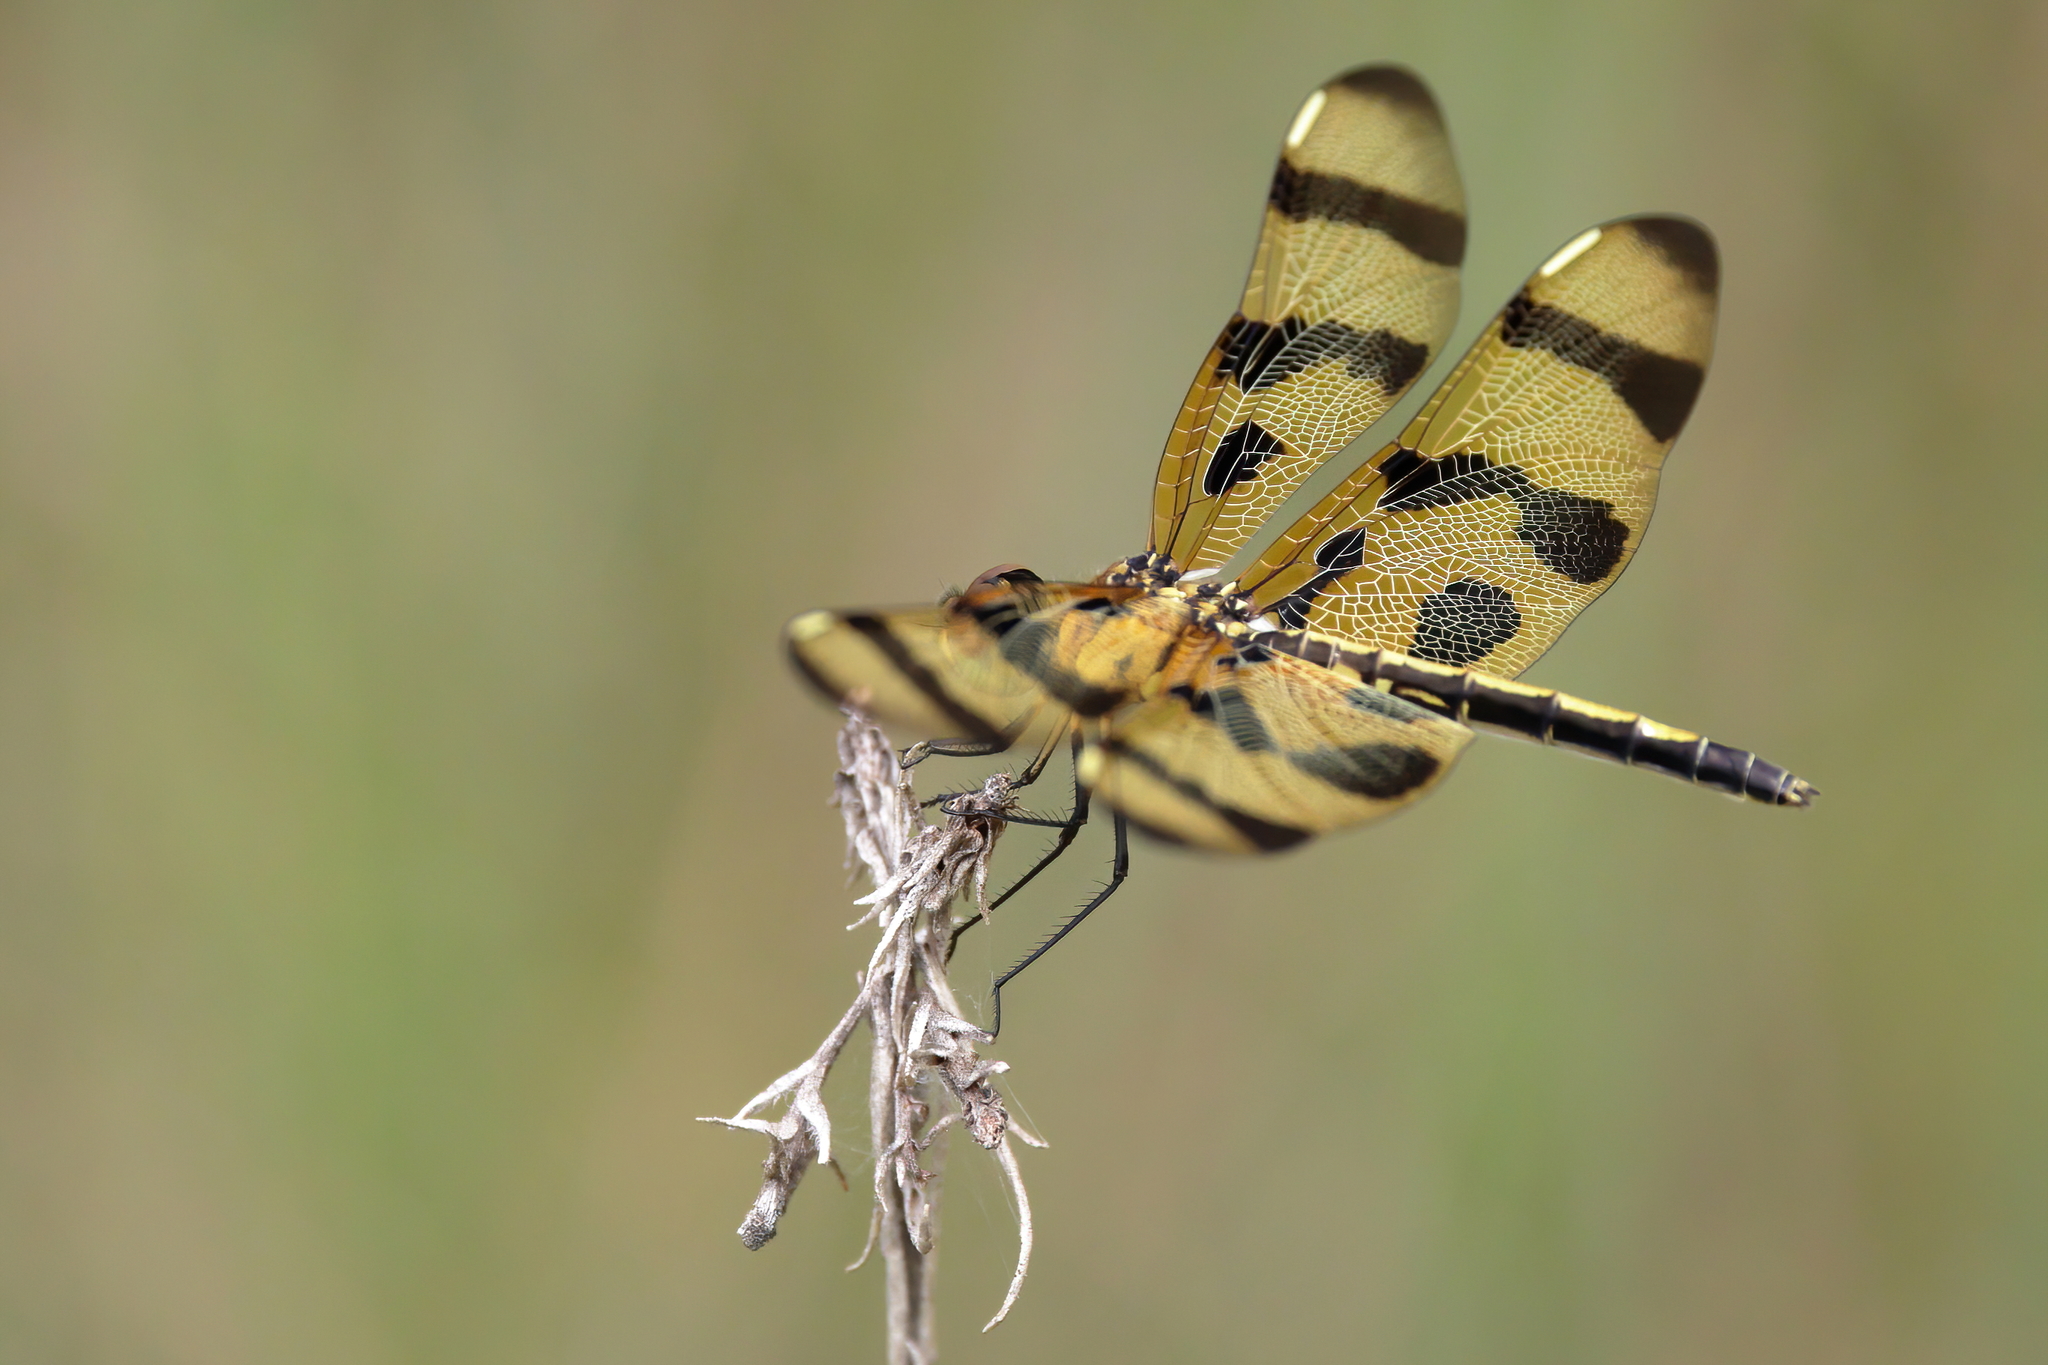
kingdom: Animalia
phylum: Arthropoda
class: Insecta
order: Odonata
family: Libellulidae
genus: Celithemis
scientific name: Celithemis eponina
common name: Halloween pennant
